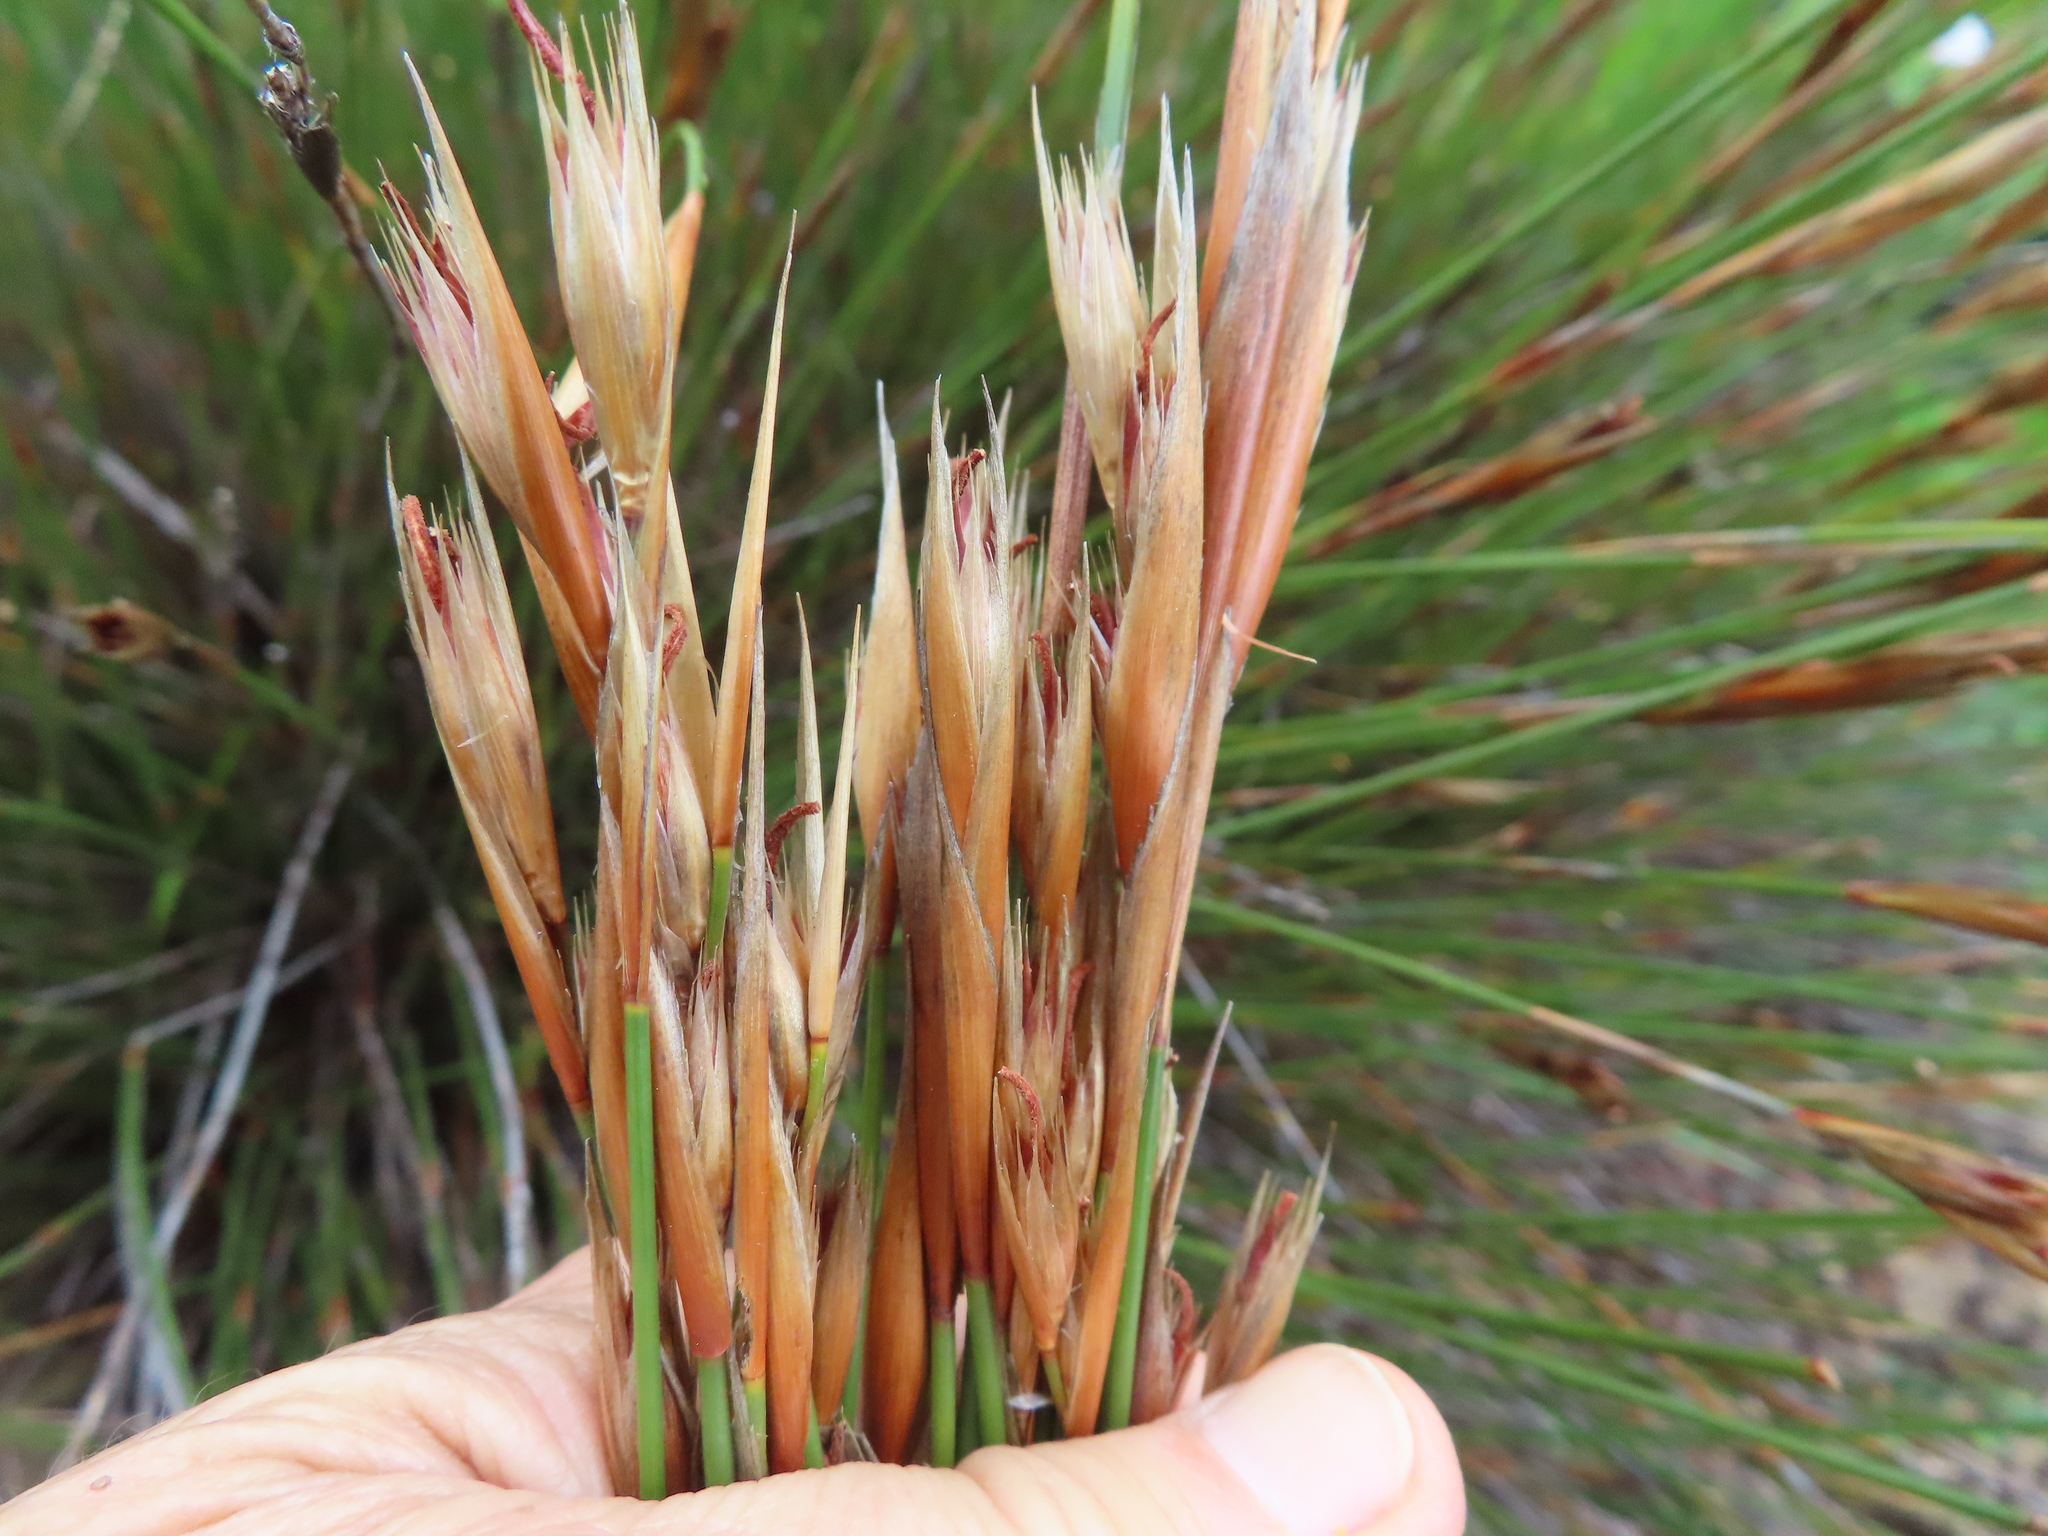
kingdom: Plantae
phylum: Tracheophyta
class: Liliopsida
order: Poales
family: Restionaceae
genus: Hypodiscus
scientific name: Hypodiscus argenteus
